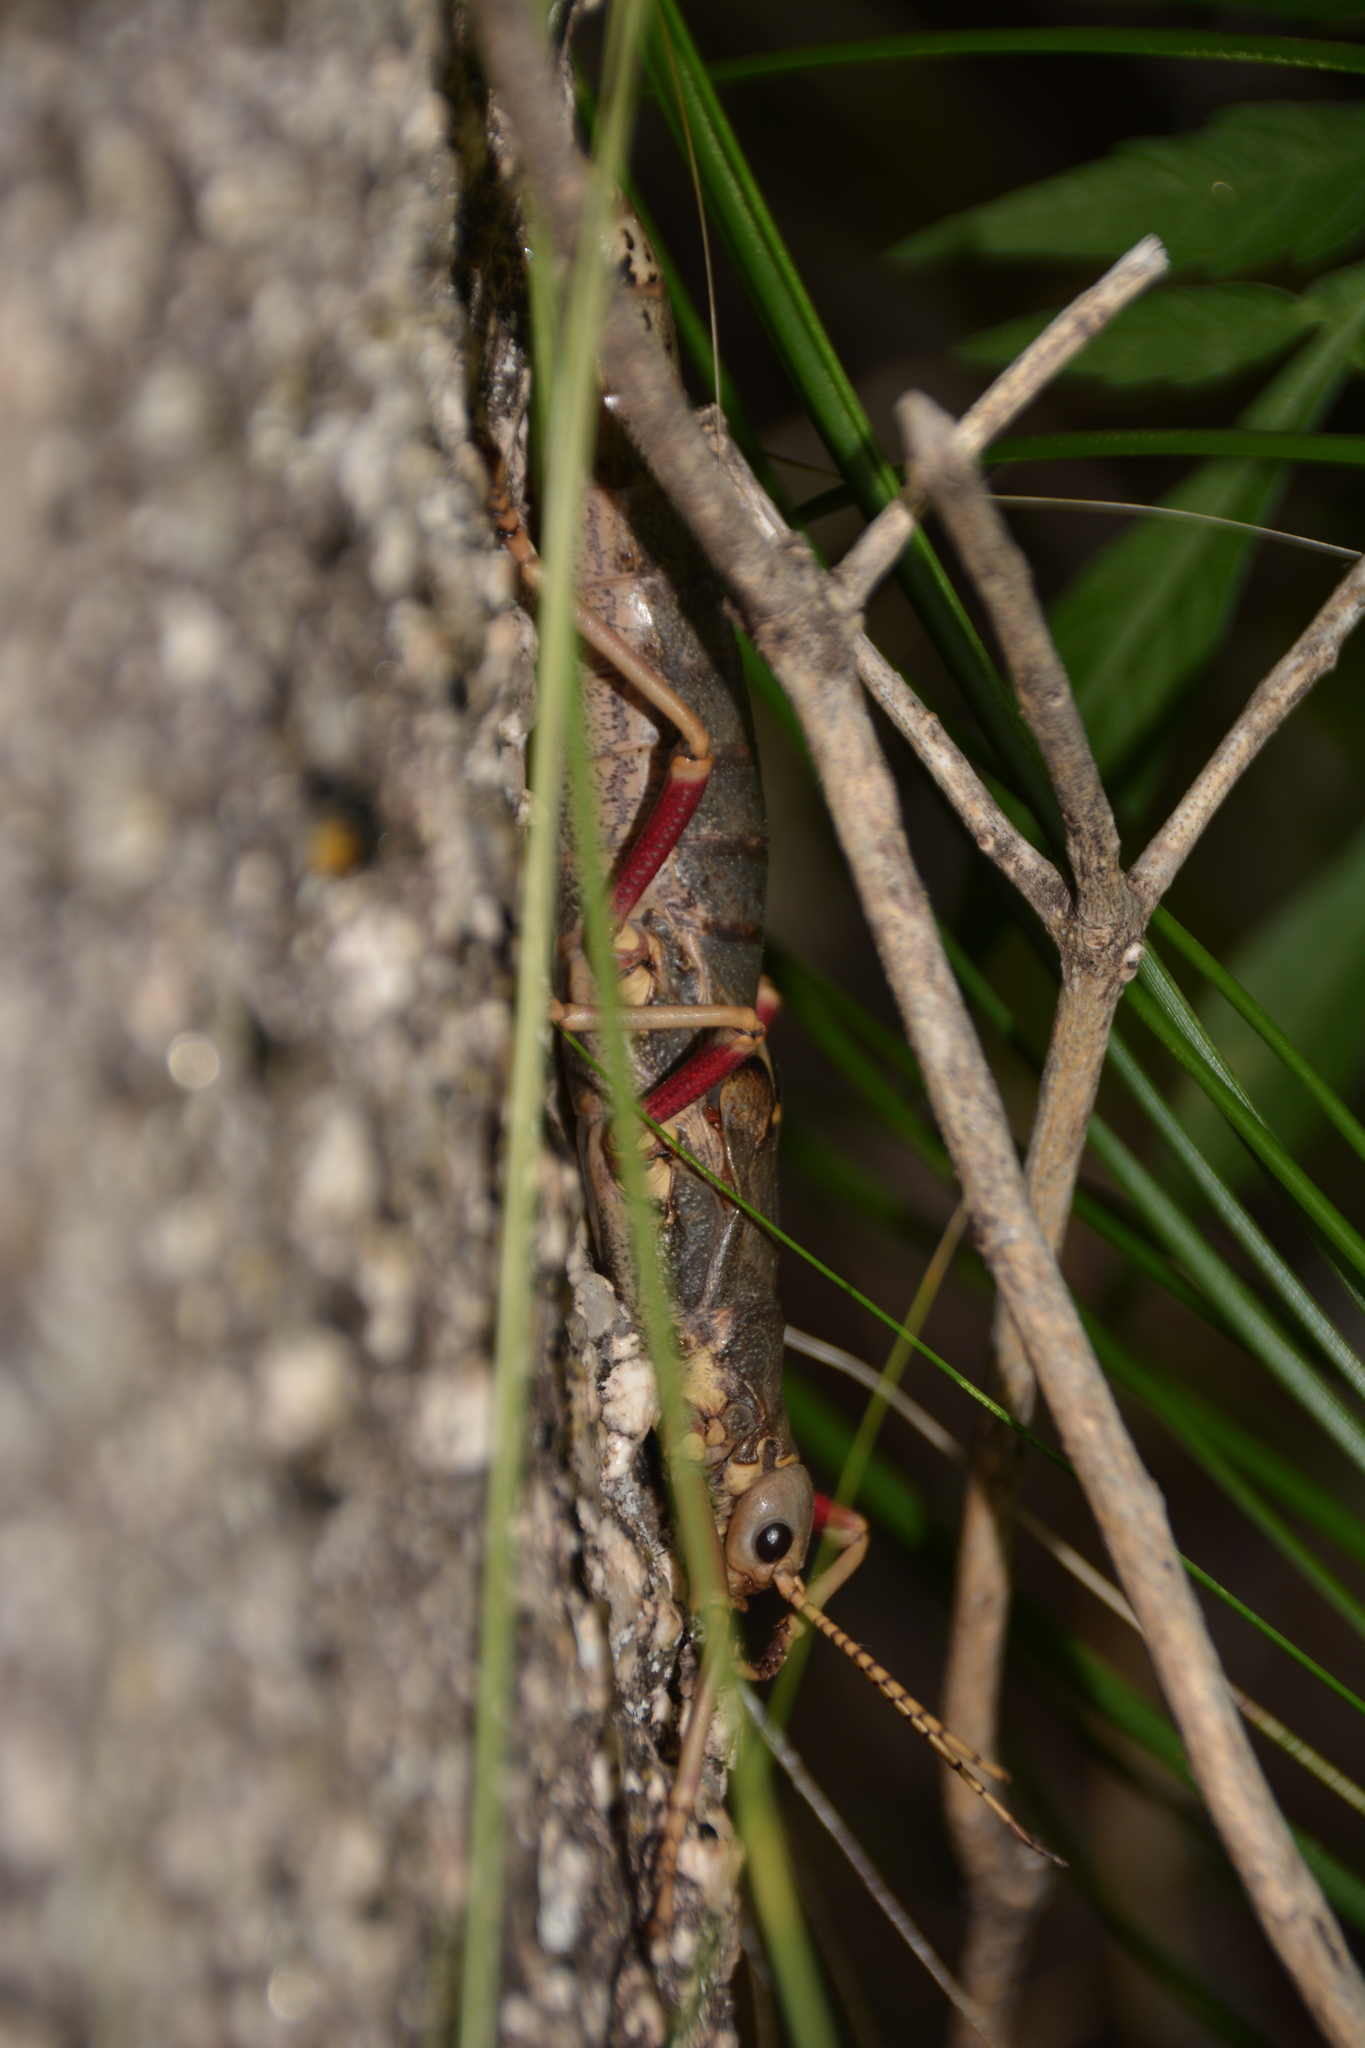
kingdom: Animalia
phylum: Arthropoda
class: Insecta
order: Phasmida
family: Agathemeridae
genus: Agathemera
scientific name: Agathemera luteola
